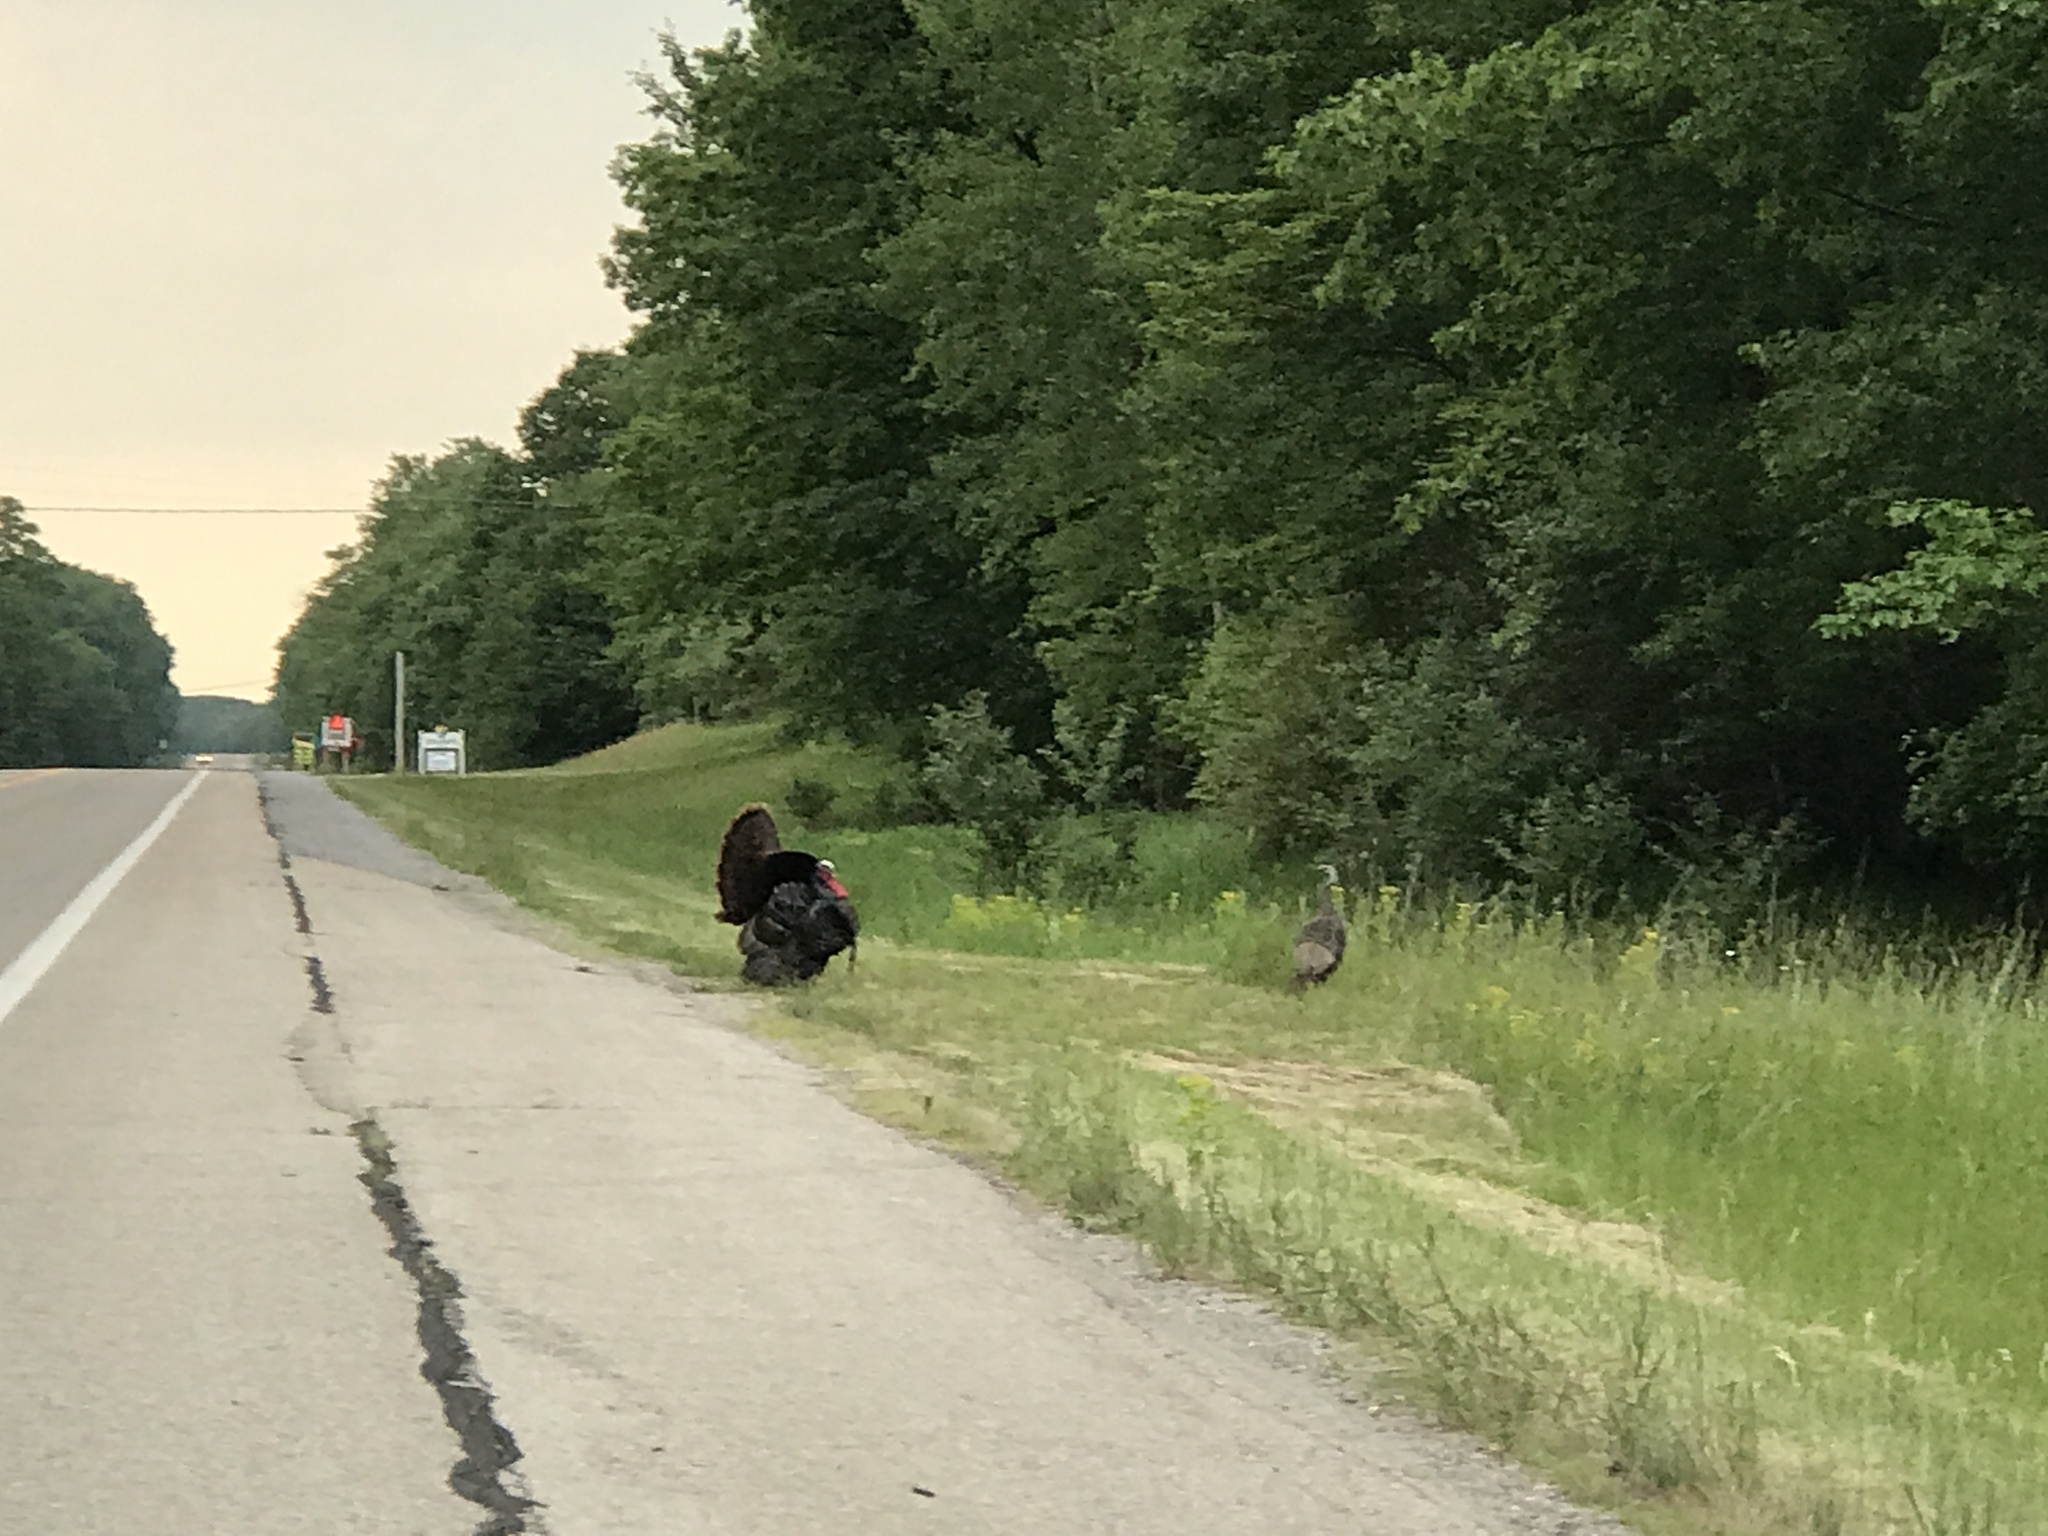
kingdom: Animalia
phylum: Chordata
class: Aves
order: Galliformes
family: Phasianidae
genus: Meleagris
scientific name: Meleagris gallopavo
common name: Wild turkey
